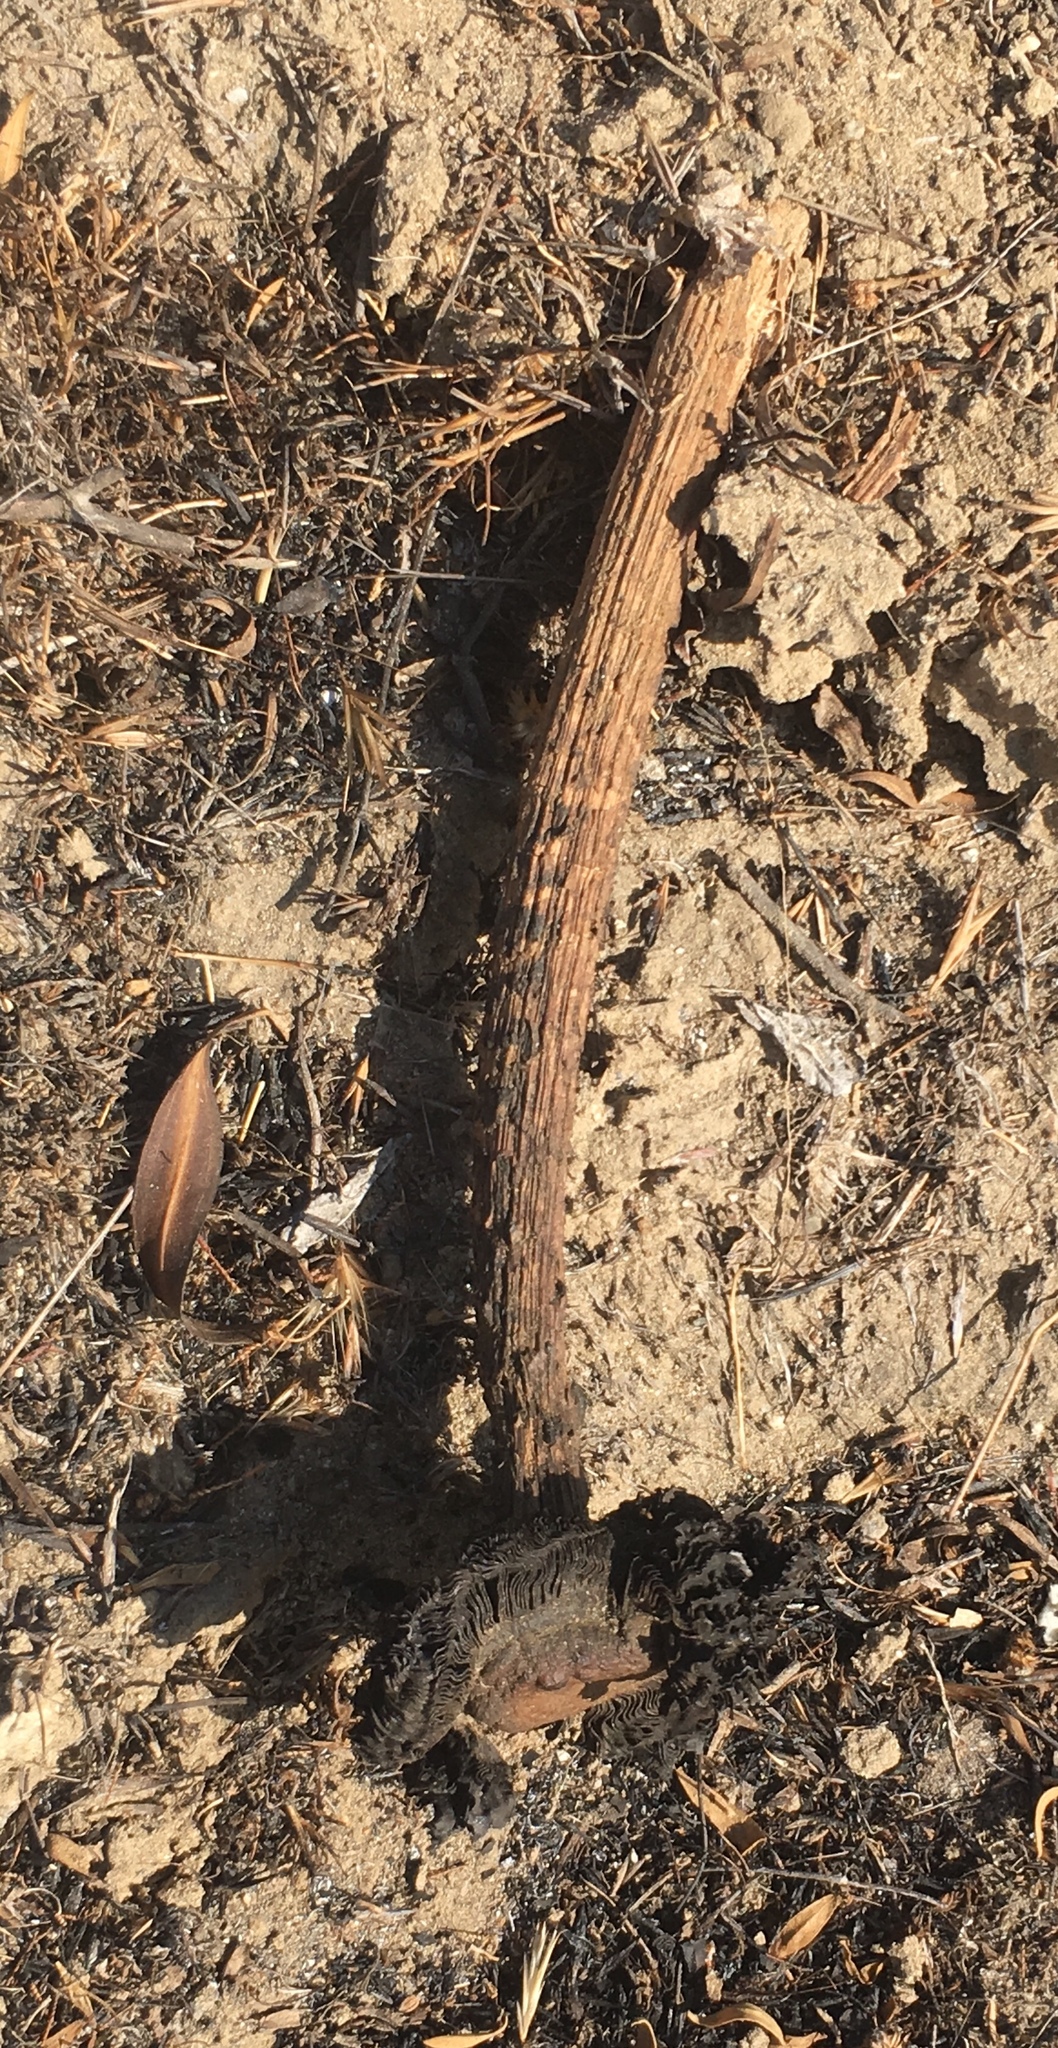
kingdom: Fungi
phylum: Basidiomycota
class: Agaricomycetes
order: Agaricales
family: Agaricaceae
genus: Montagnea
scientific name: Montagnea arenaria
